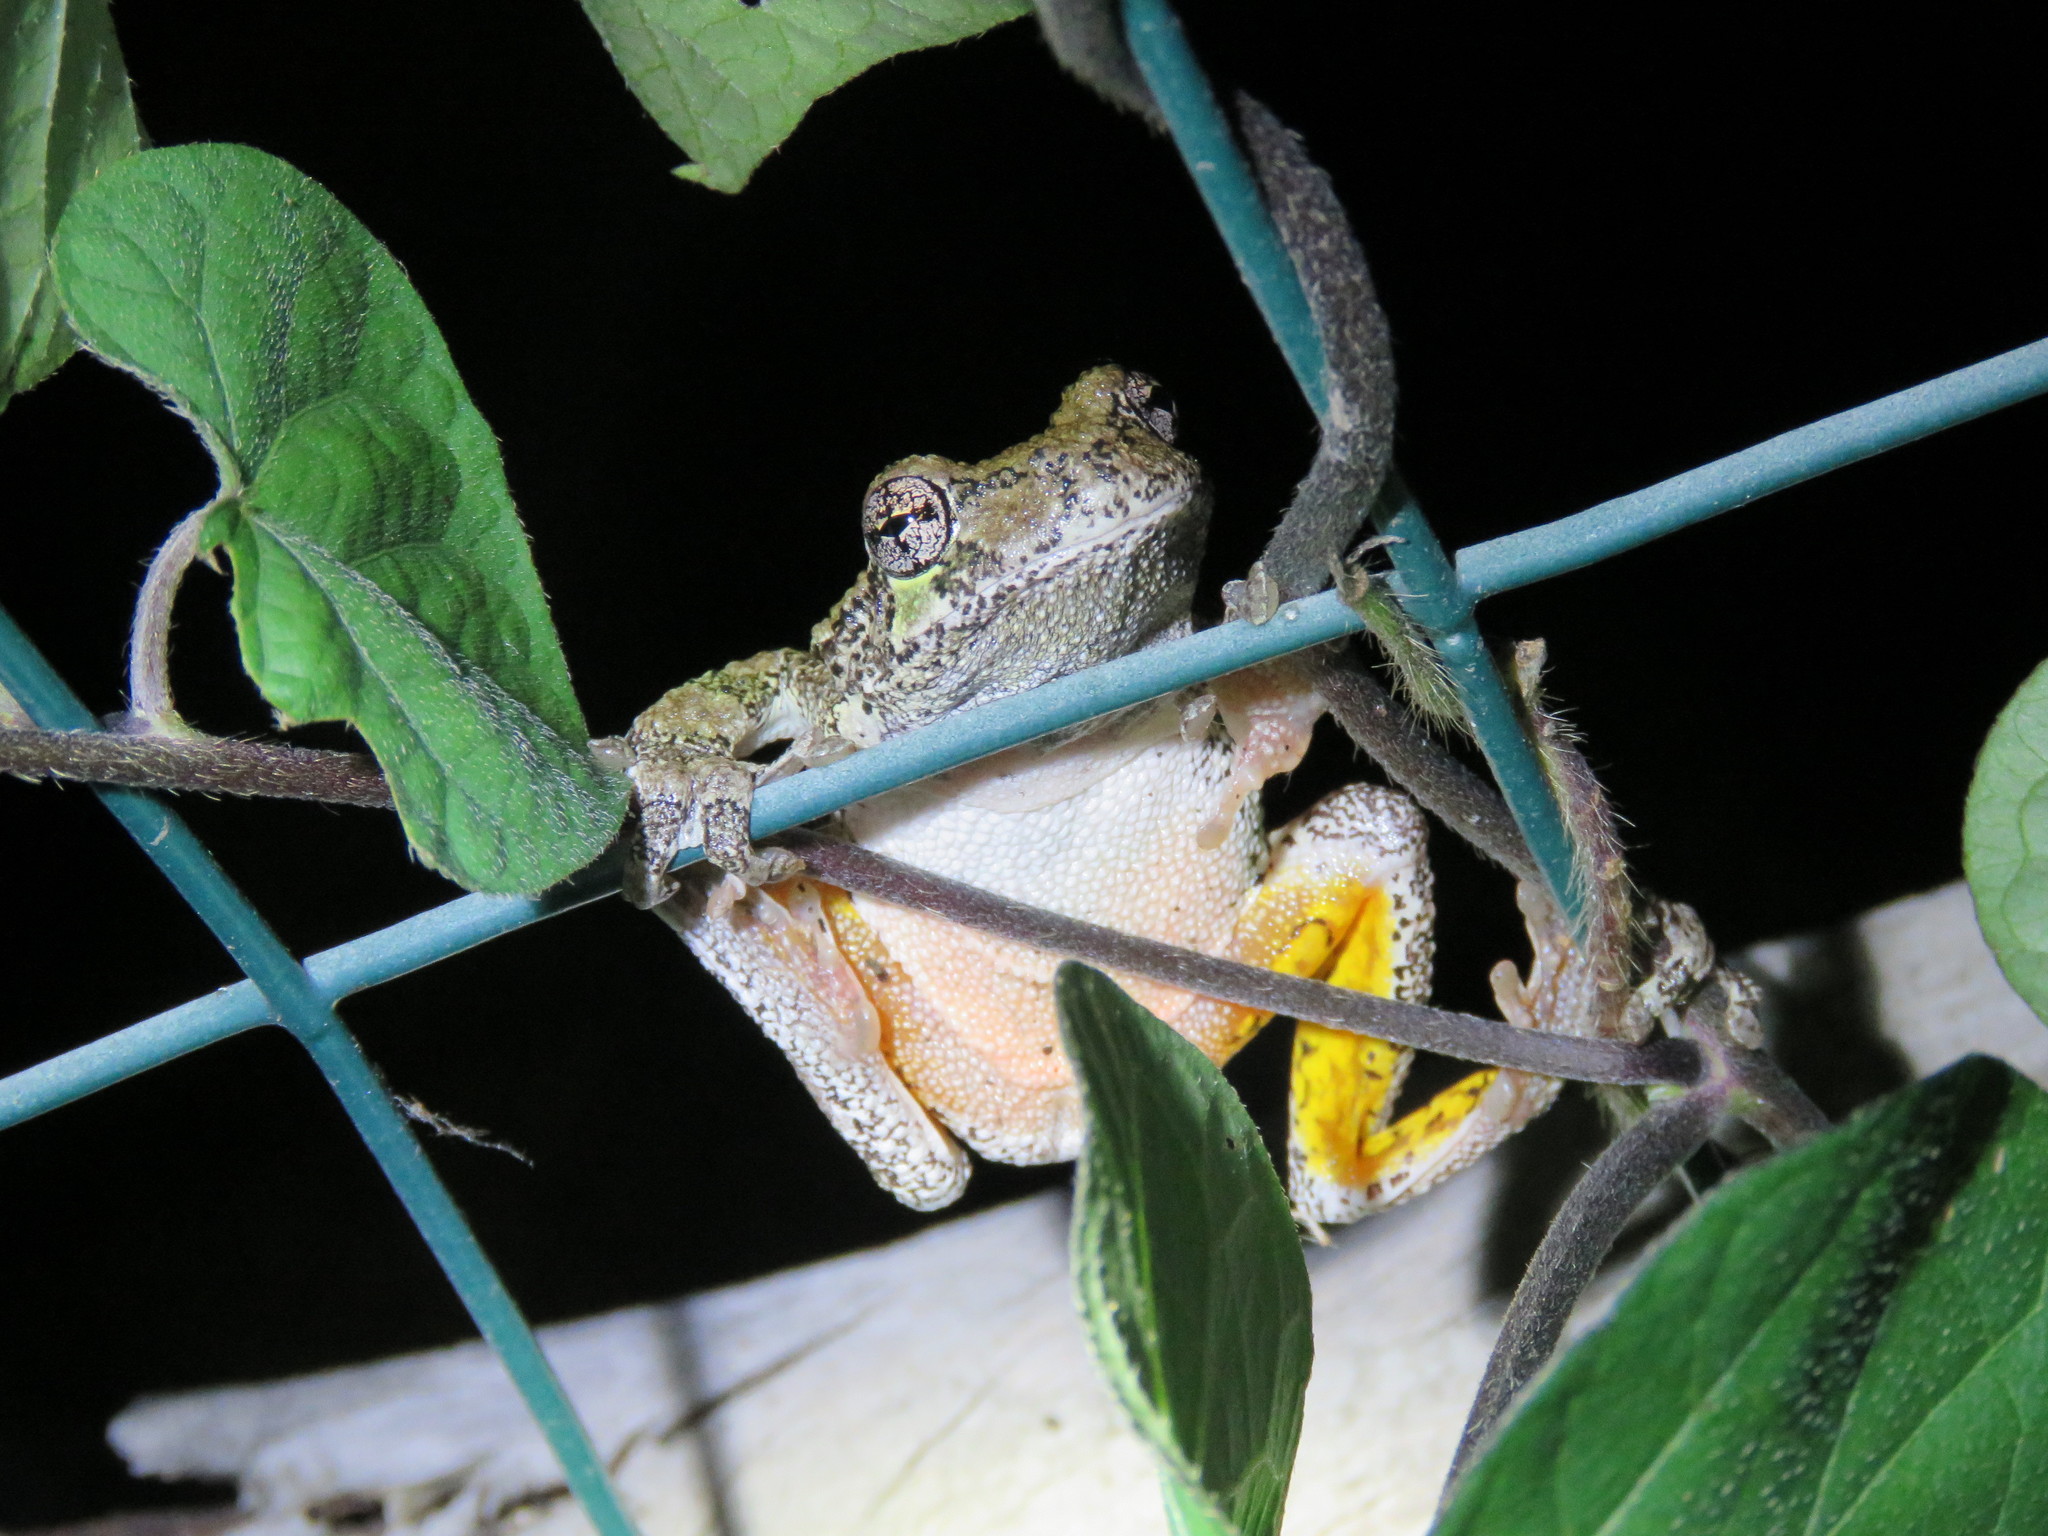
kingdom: Animalia
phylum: Chordata
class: Amphibia
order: Anura
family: Hylidae
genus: Dryophytes
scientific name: Dryophytes versicolor
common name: Gray treefrog
